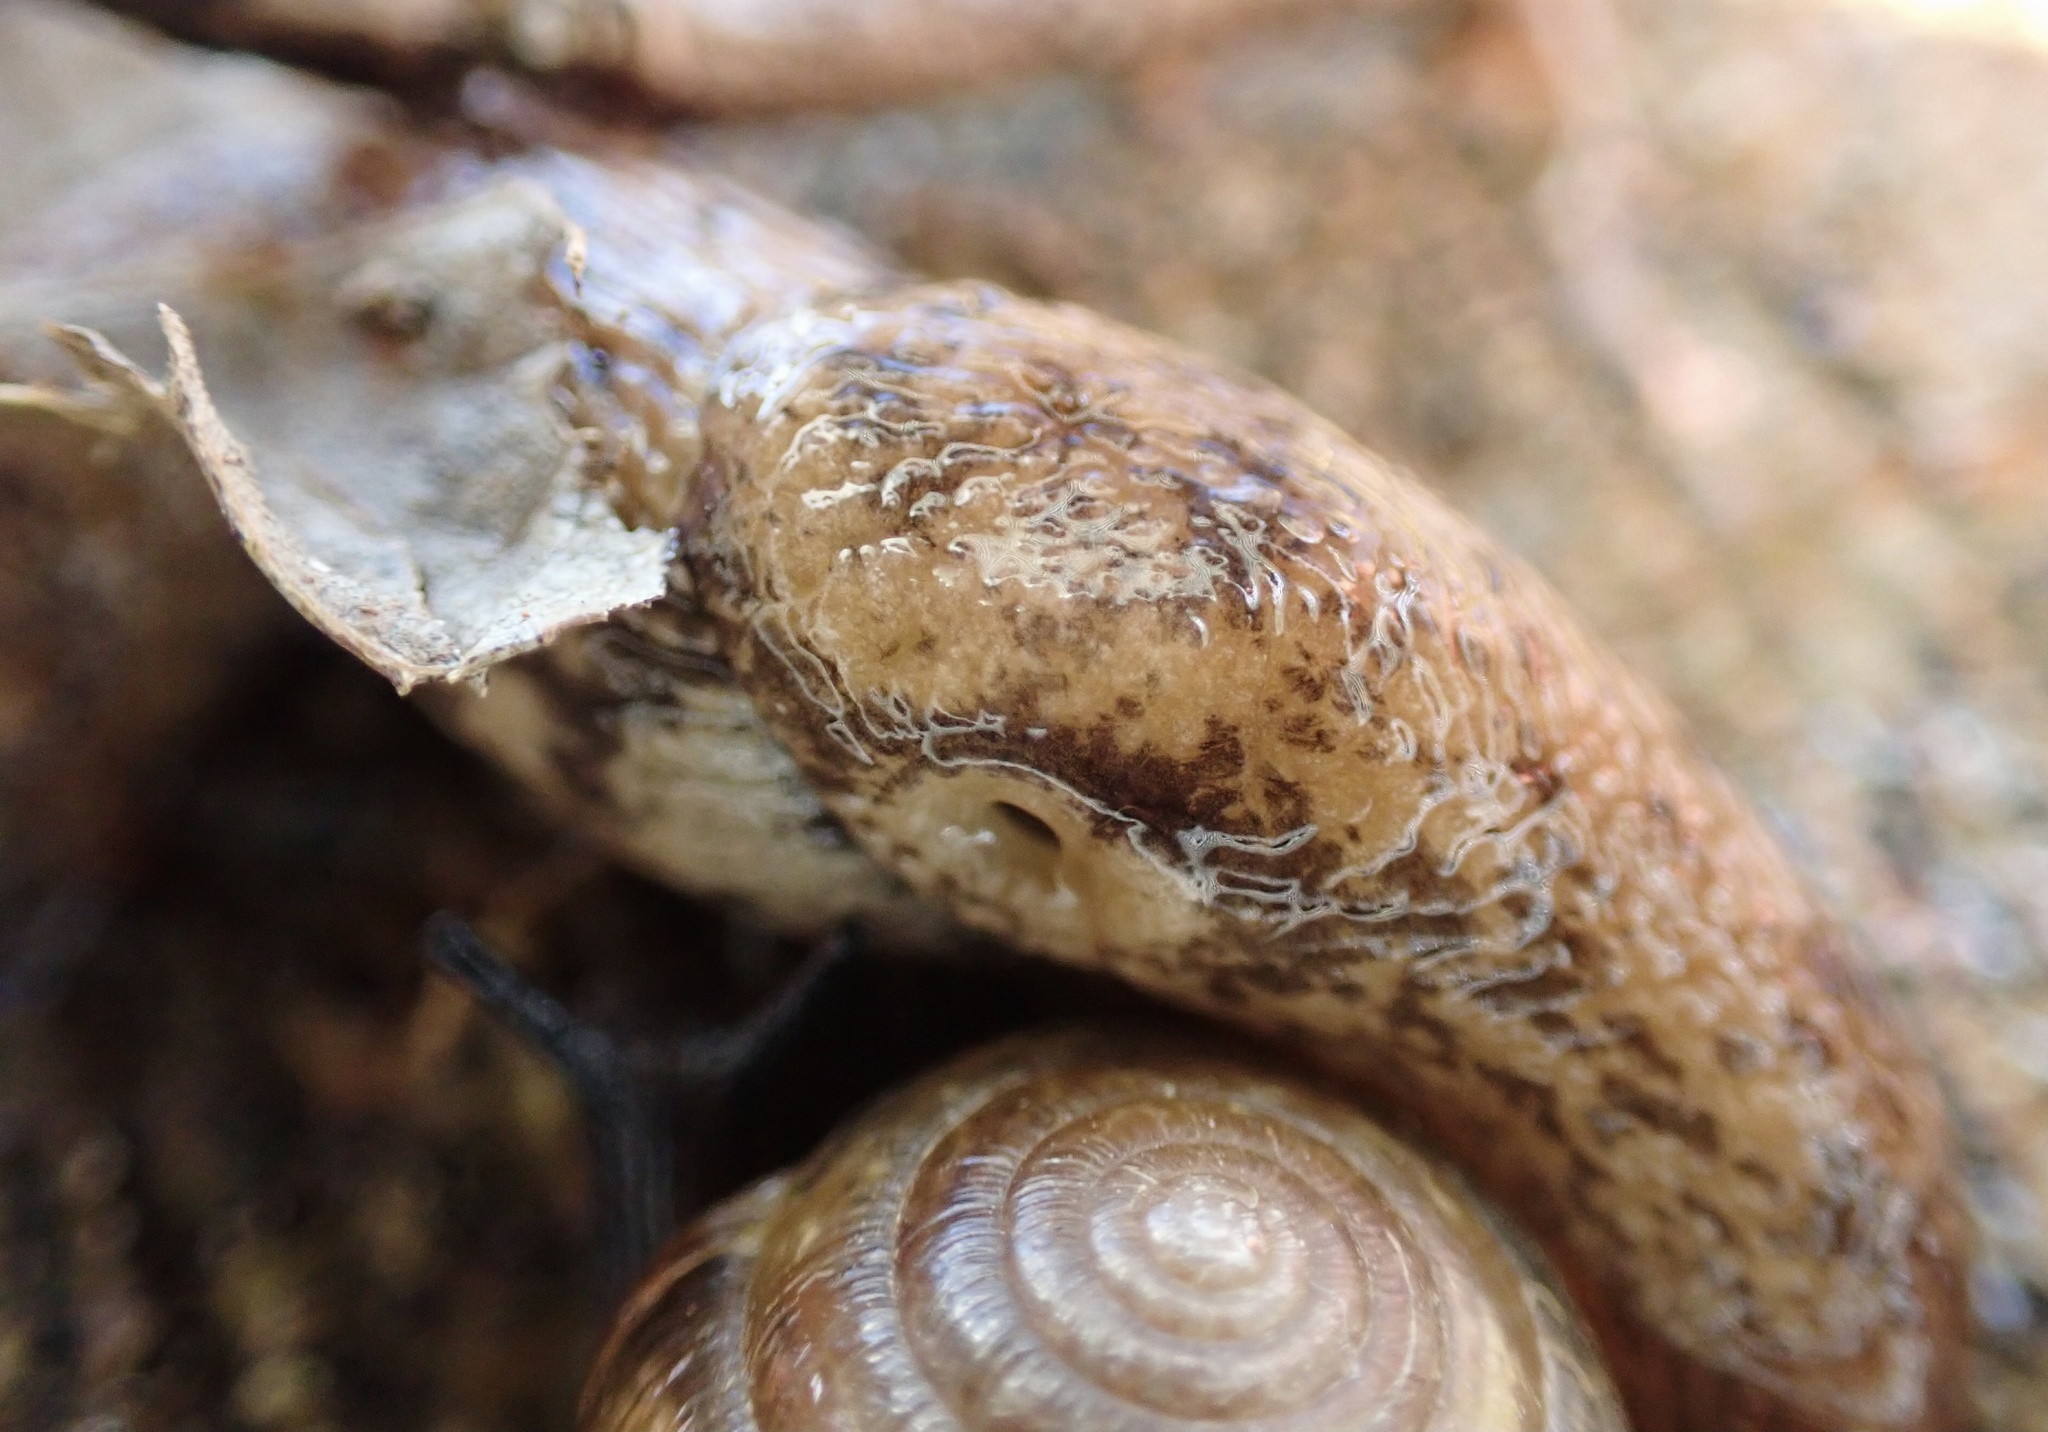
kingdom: Animalia
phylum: Mollusca
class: Gastropoda
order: Stylommatophora
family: Agriolimacidae
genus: Deroceras
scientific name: Deroceras reticulatum
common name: Gray field slug
